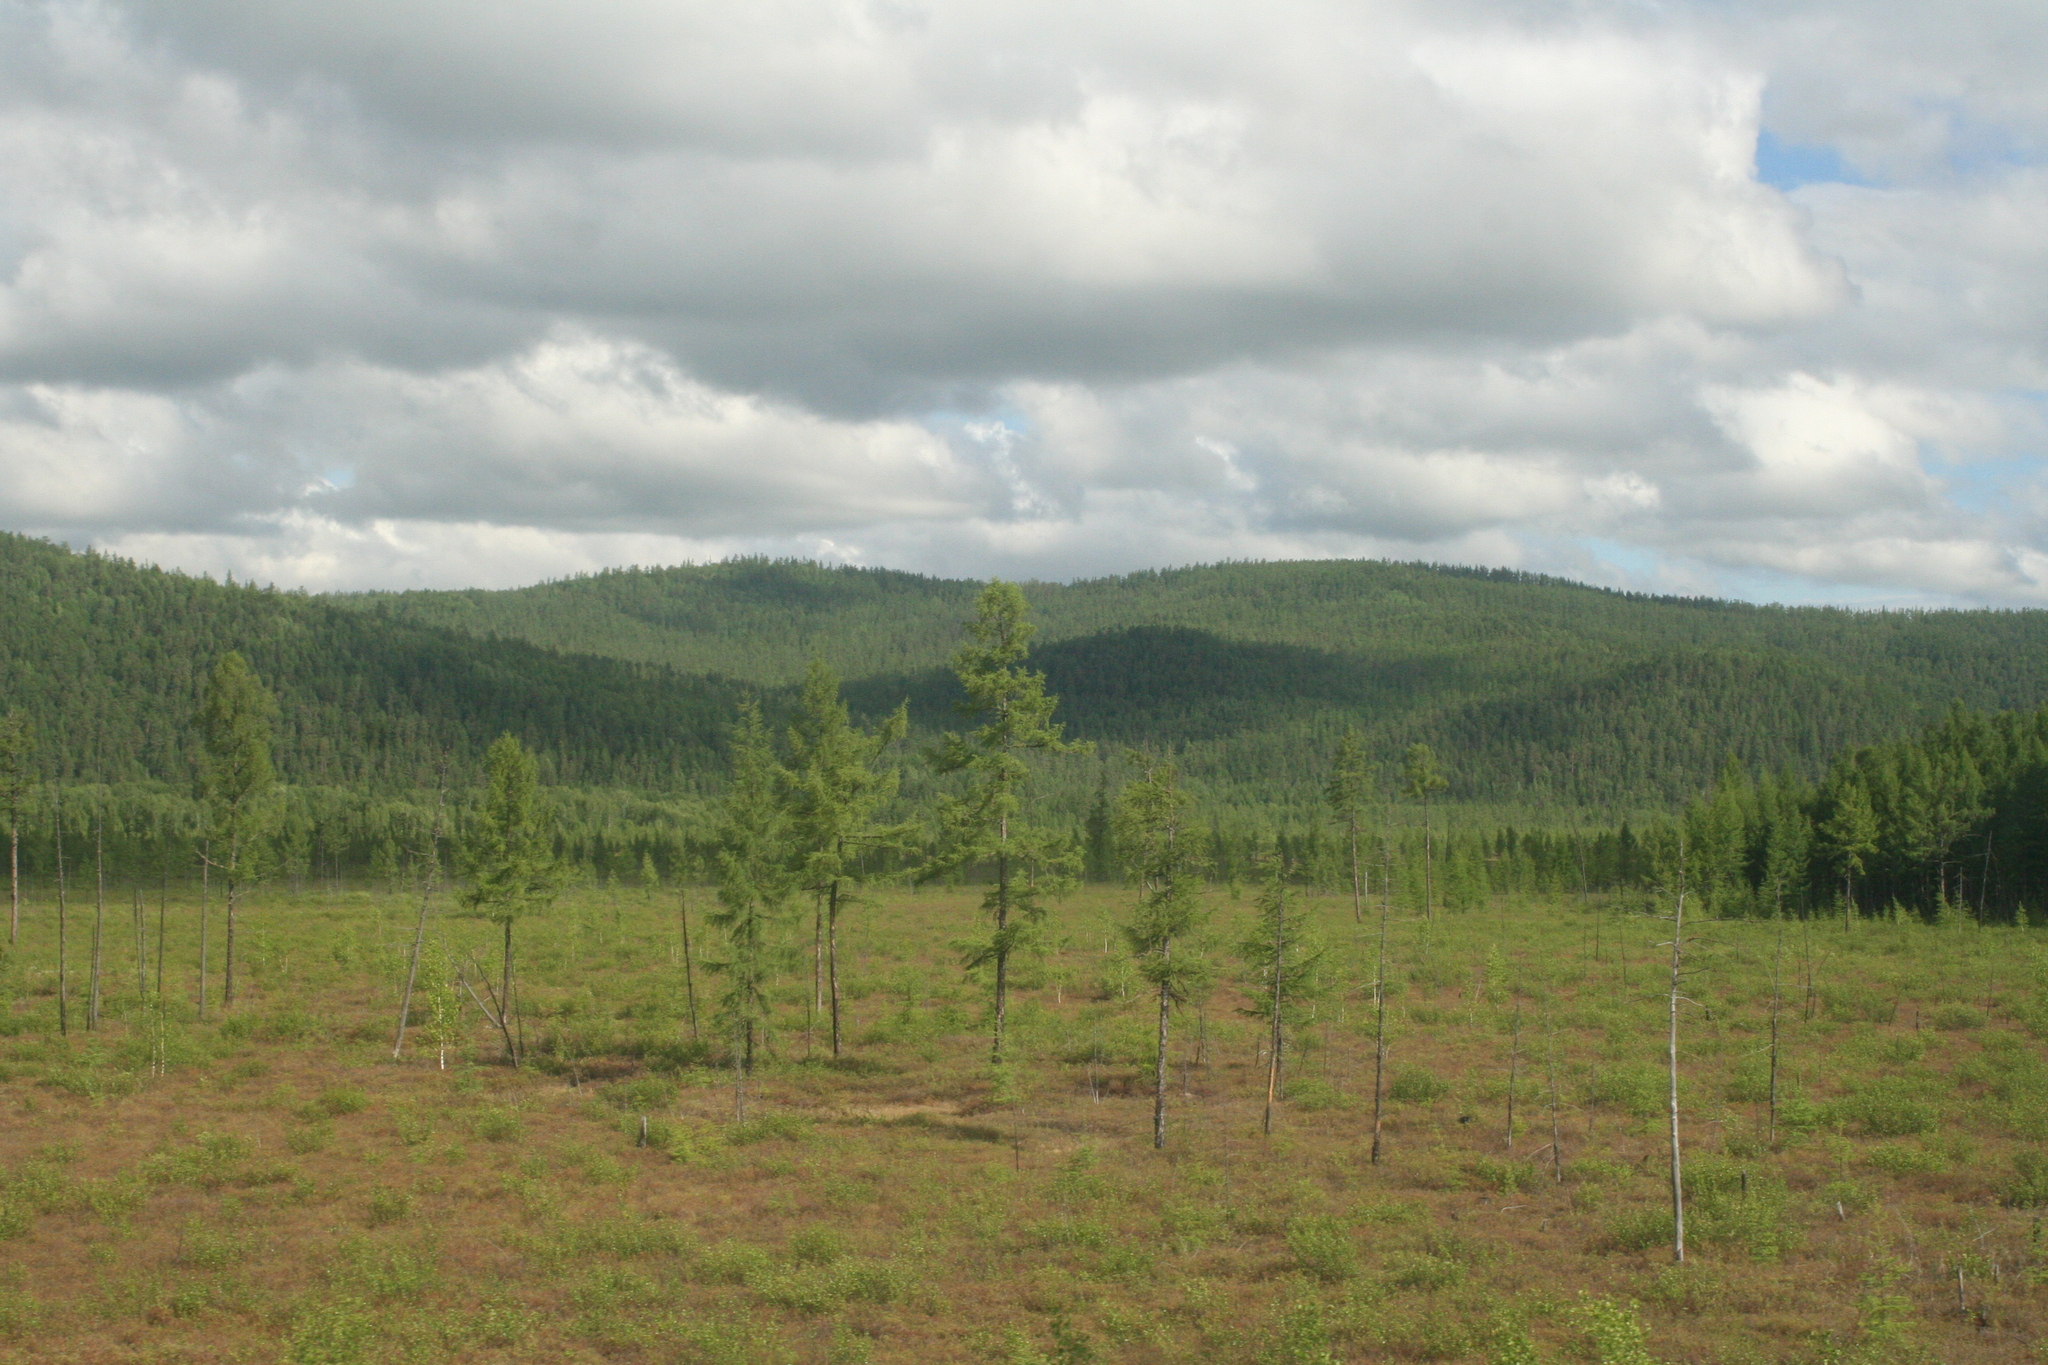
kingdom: Plantae
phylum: Tracheophyta
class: Pinopsida
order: Pinales
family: Pinaceae
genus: Larix
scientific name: Larix gmelinii
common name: Dahurian larch
